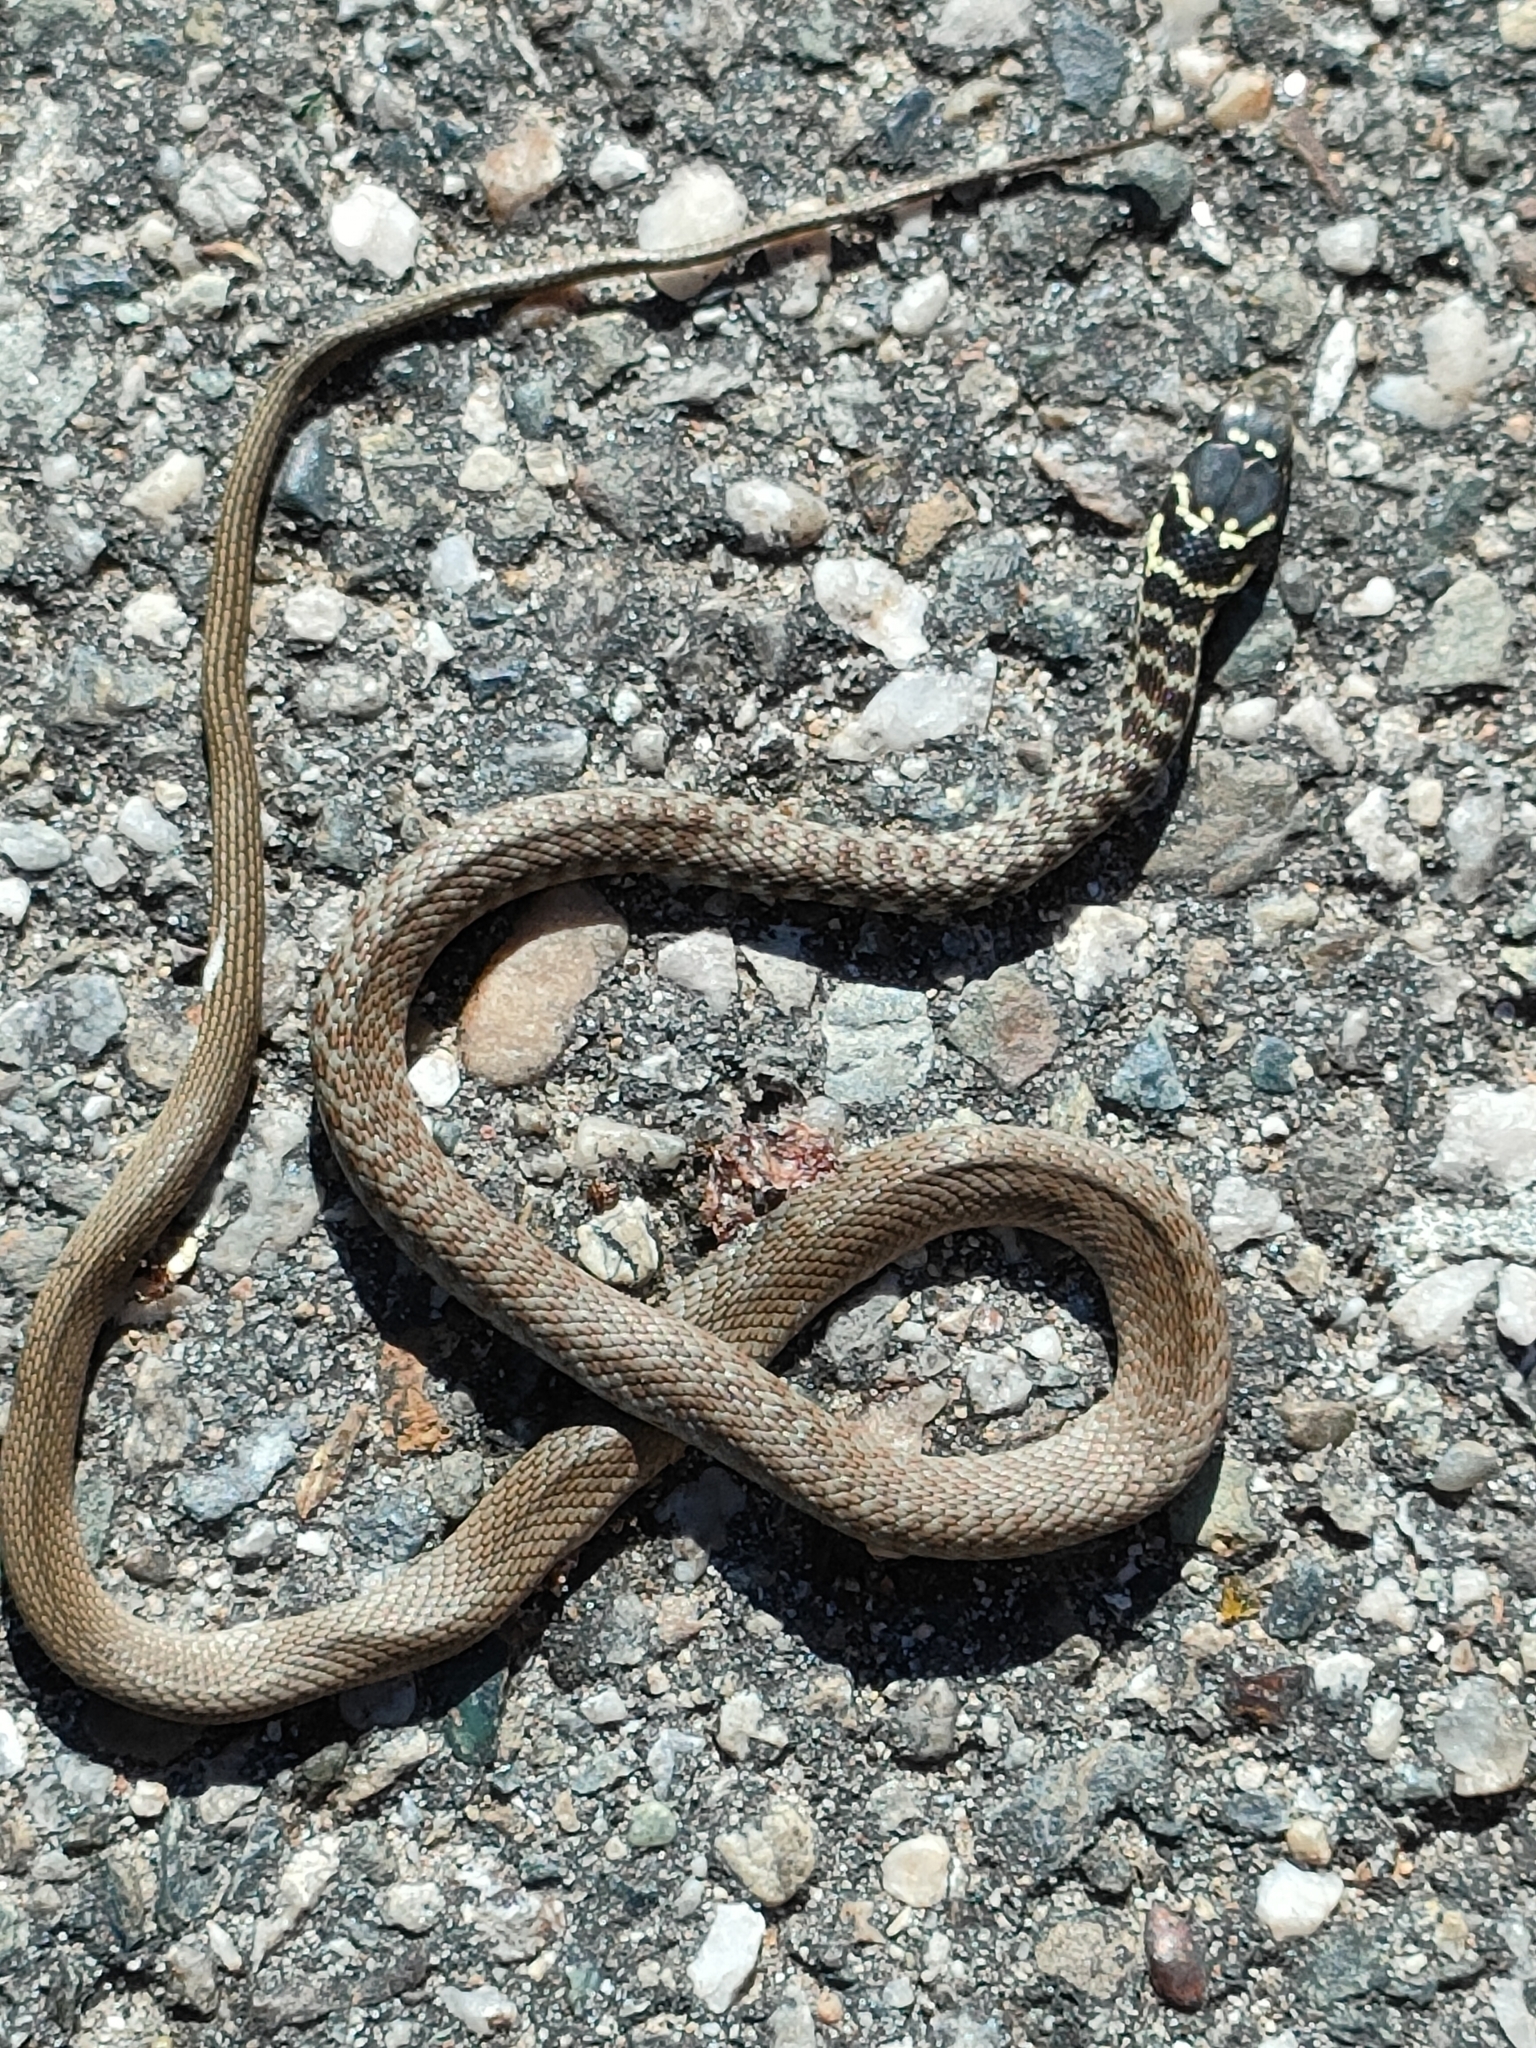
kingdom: Animalia
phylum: Chordata
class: Squamata
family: Colubridae
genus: Hierophis
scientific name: Hierophis viridiflavus
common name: Green whip snake
